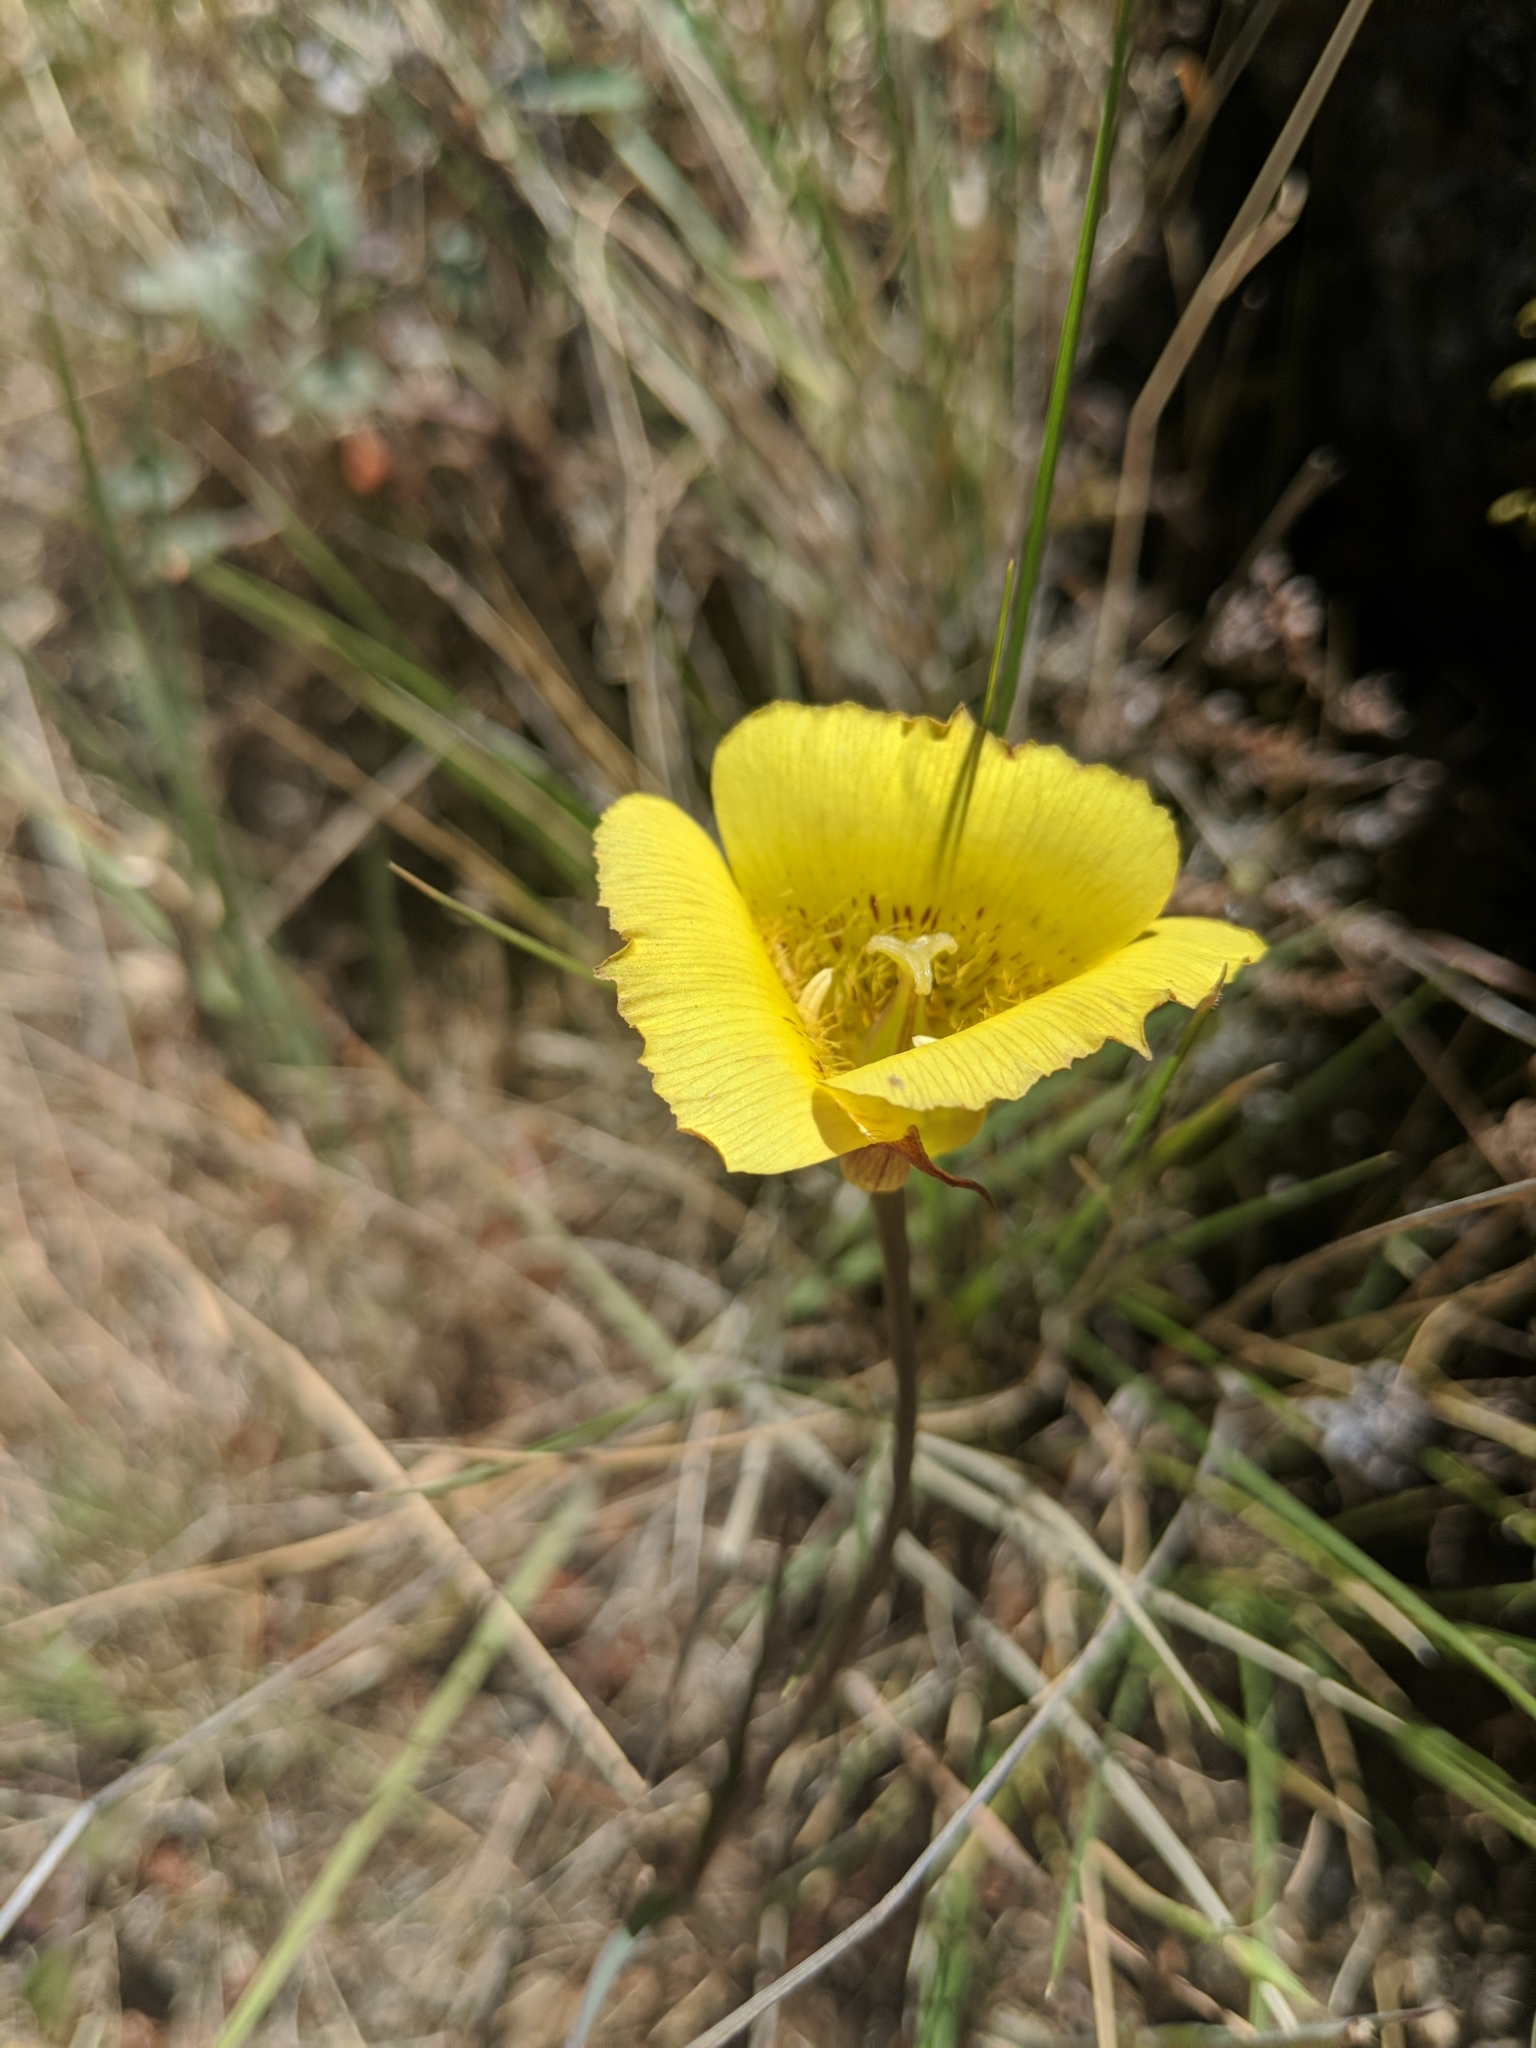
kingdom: Plantae
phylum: Tracheophyta
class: Liliopsida
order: Liliales
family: Liliaceae
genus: Calochortus
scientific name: Calochortus luteus
